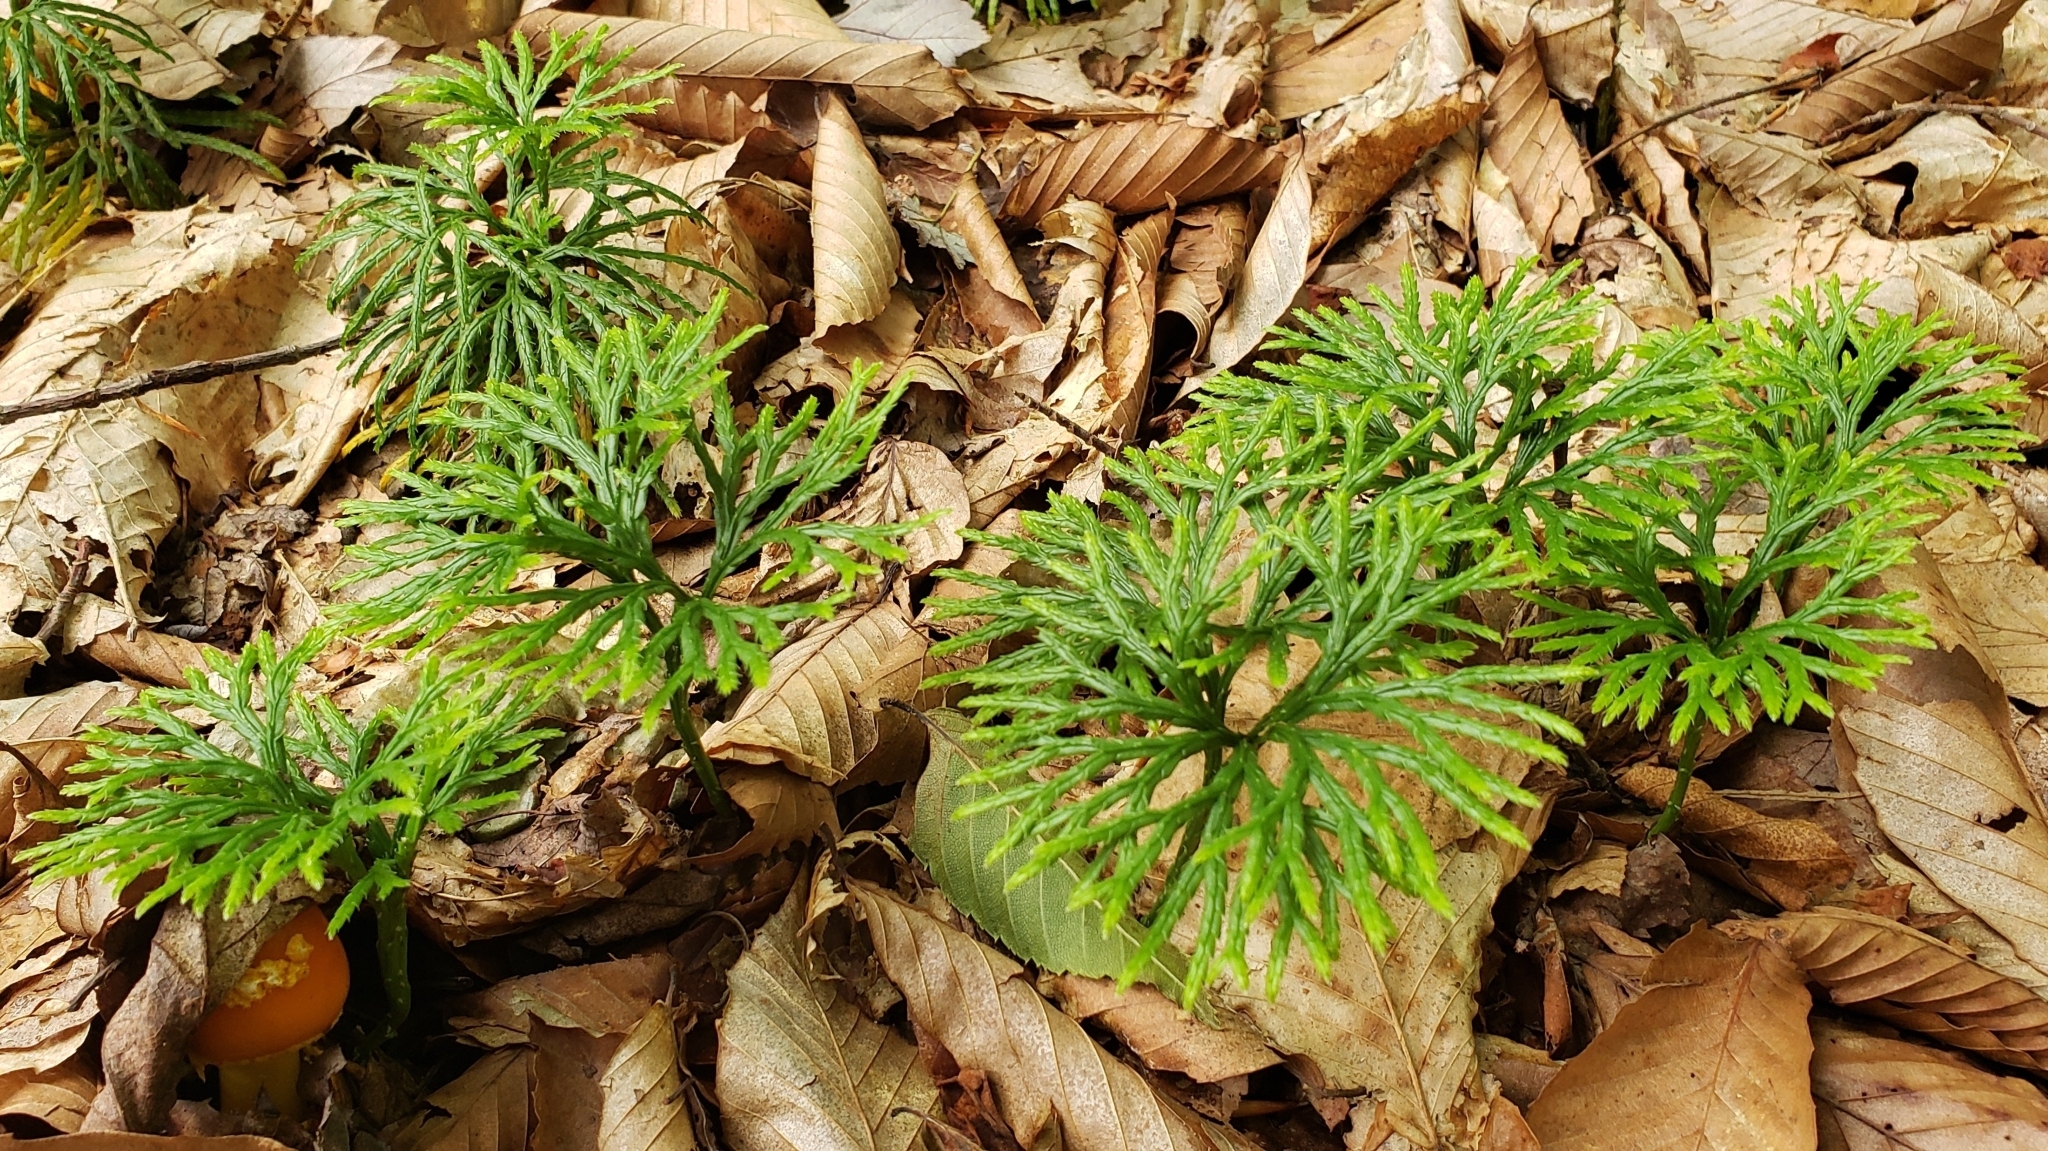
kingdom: Plantae
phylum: Tracheophyta
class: Lycopodiopsida
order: Lycopodiales
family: Lycopodiaceae
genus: Diphasiastrum
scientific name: Diphasiastrum digitatum
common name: Southern running-pine
